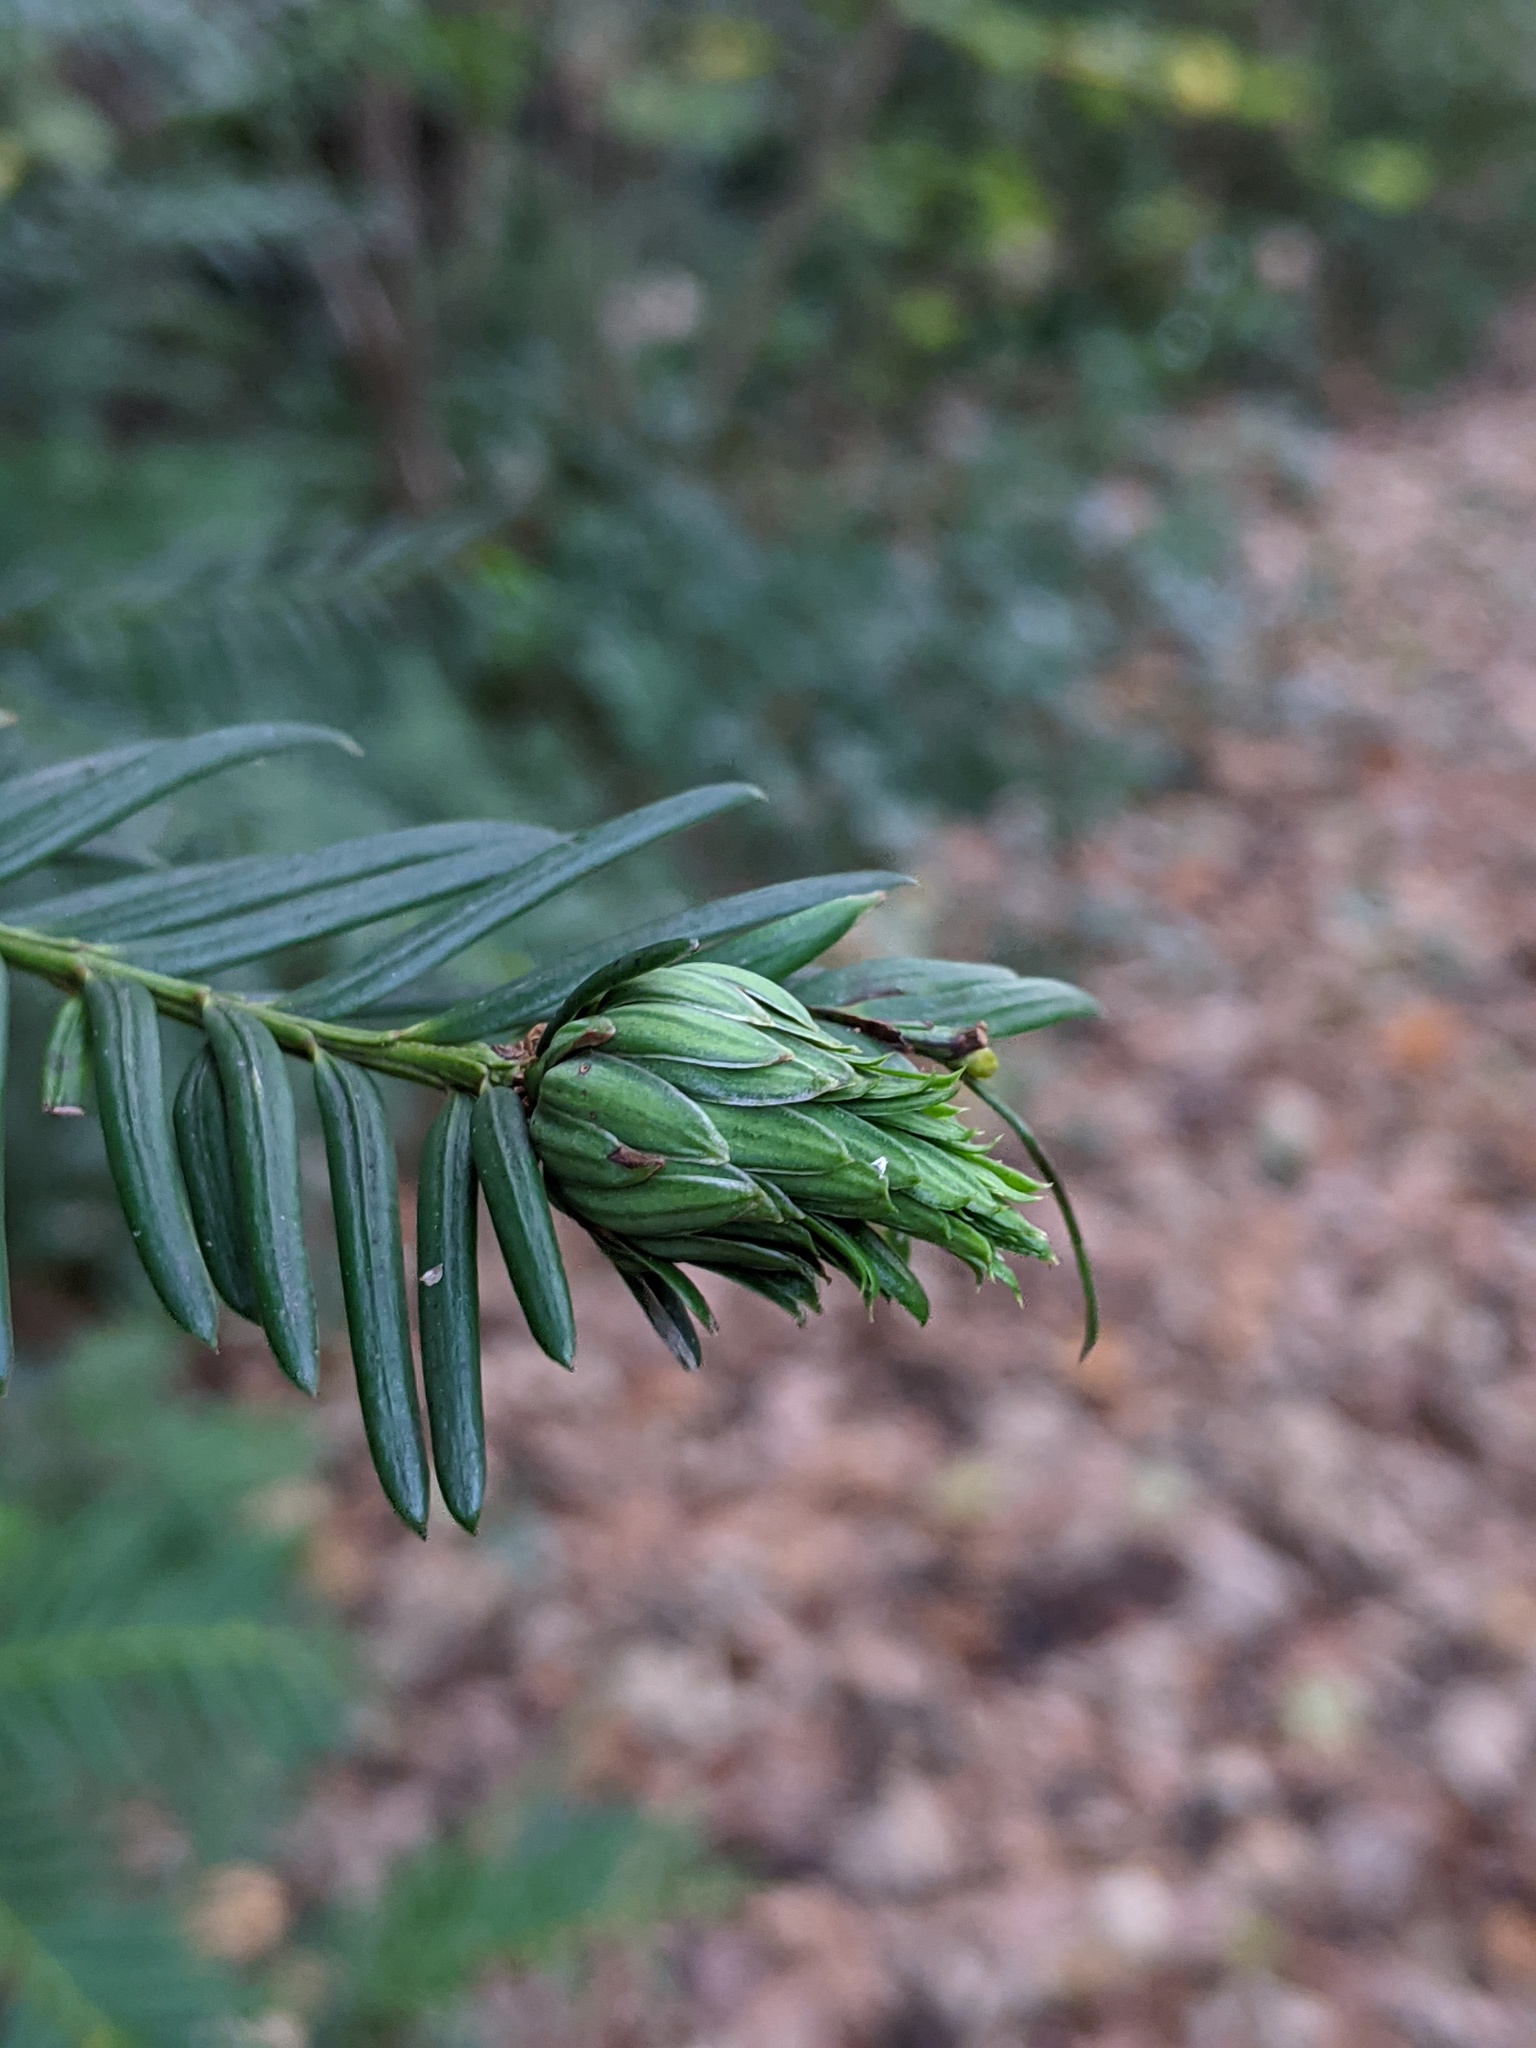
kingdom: Animalia
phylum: Arthropoda
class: Insecta
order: Diptera
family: Cecidomyiidae
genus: Taxomyia
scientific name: Taxomyia taxi
